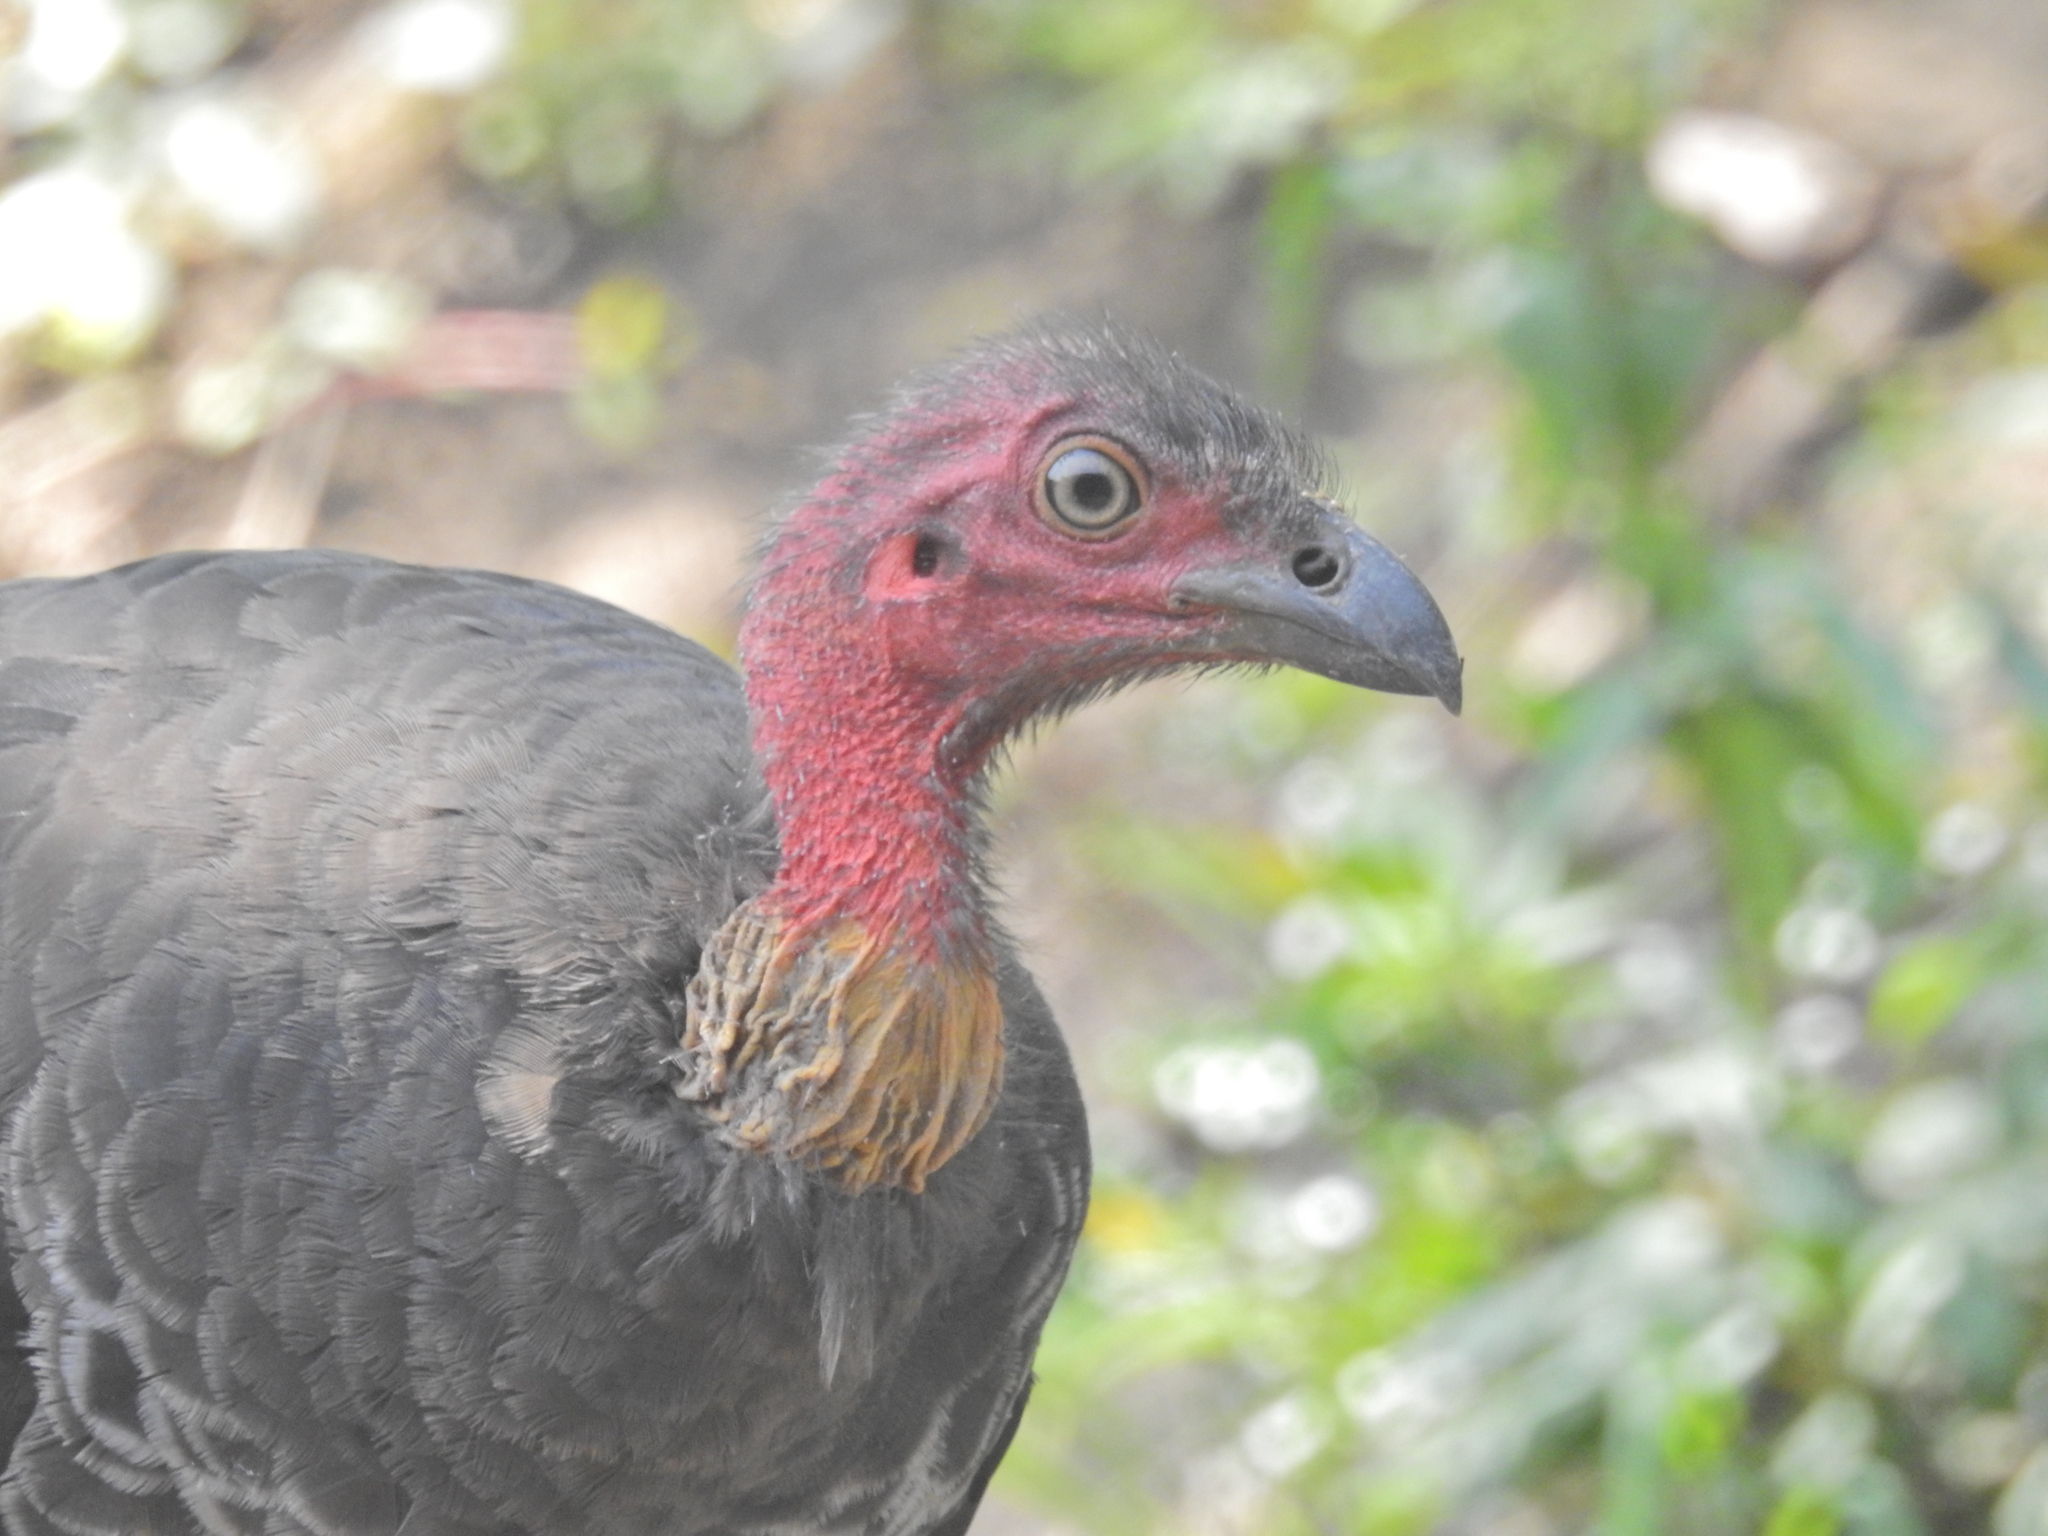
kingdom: Animalia
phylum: Chordata
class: Aves
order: Galliformes
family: Megapodiidae
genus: Alectura
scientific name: Alectura lathami
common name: Australian brushturkey
